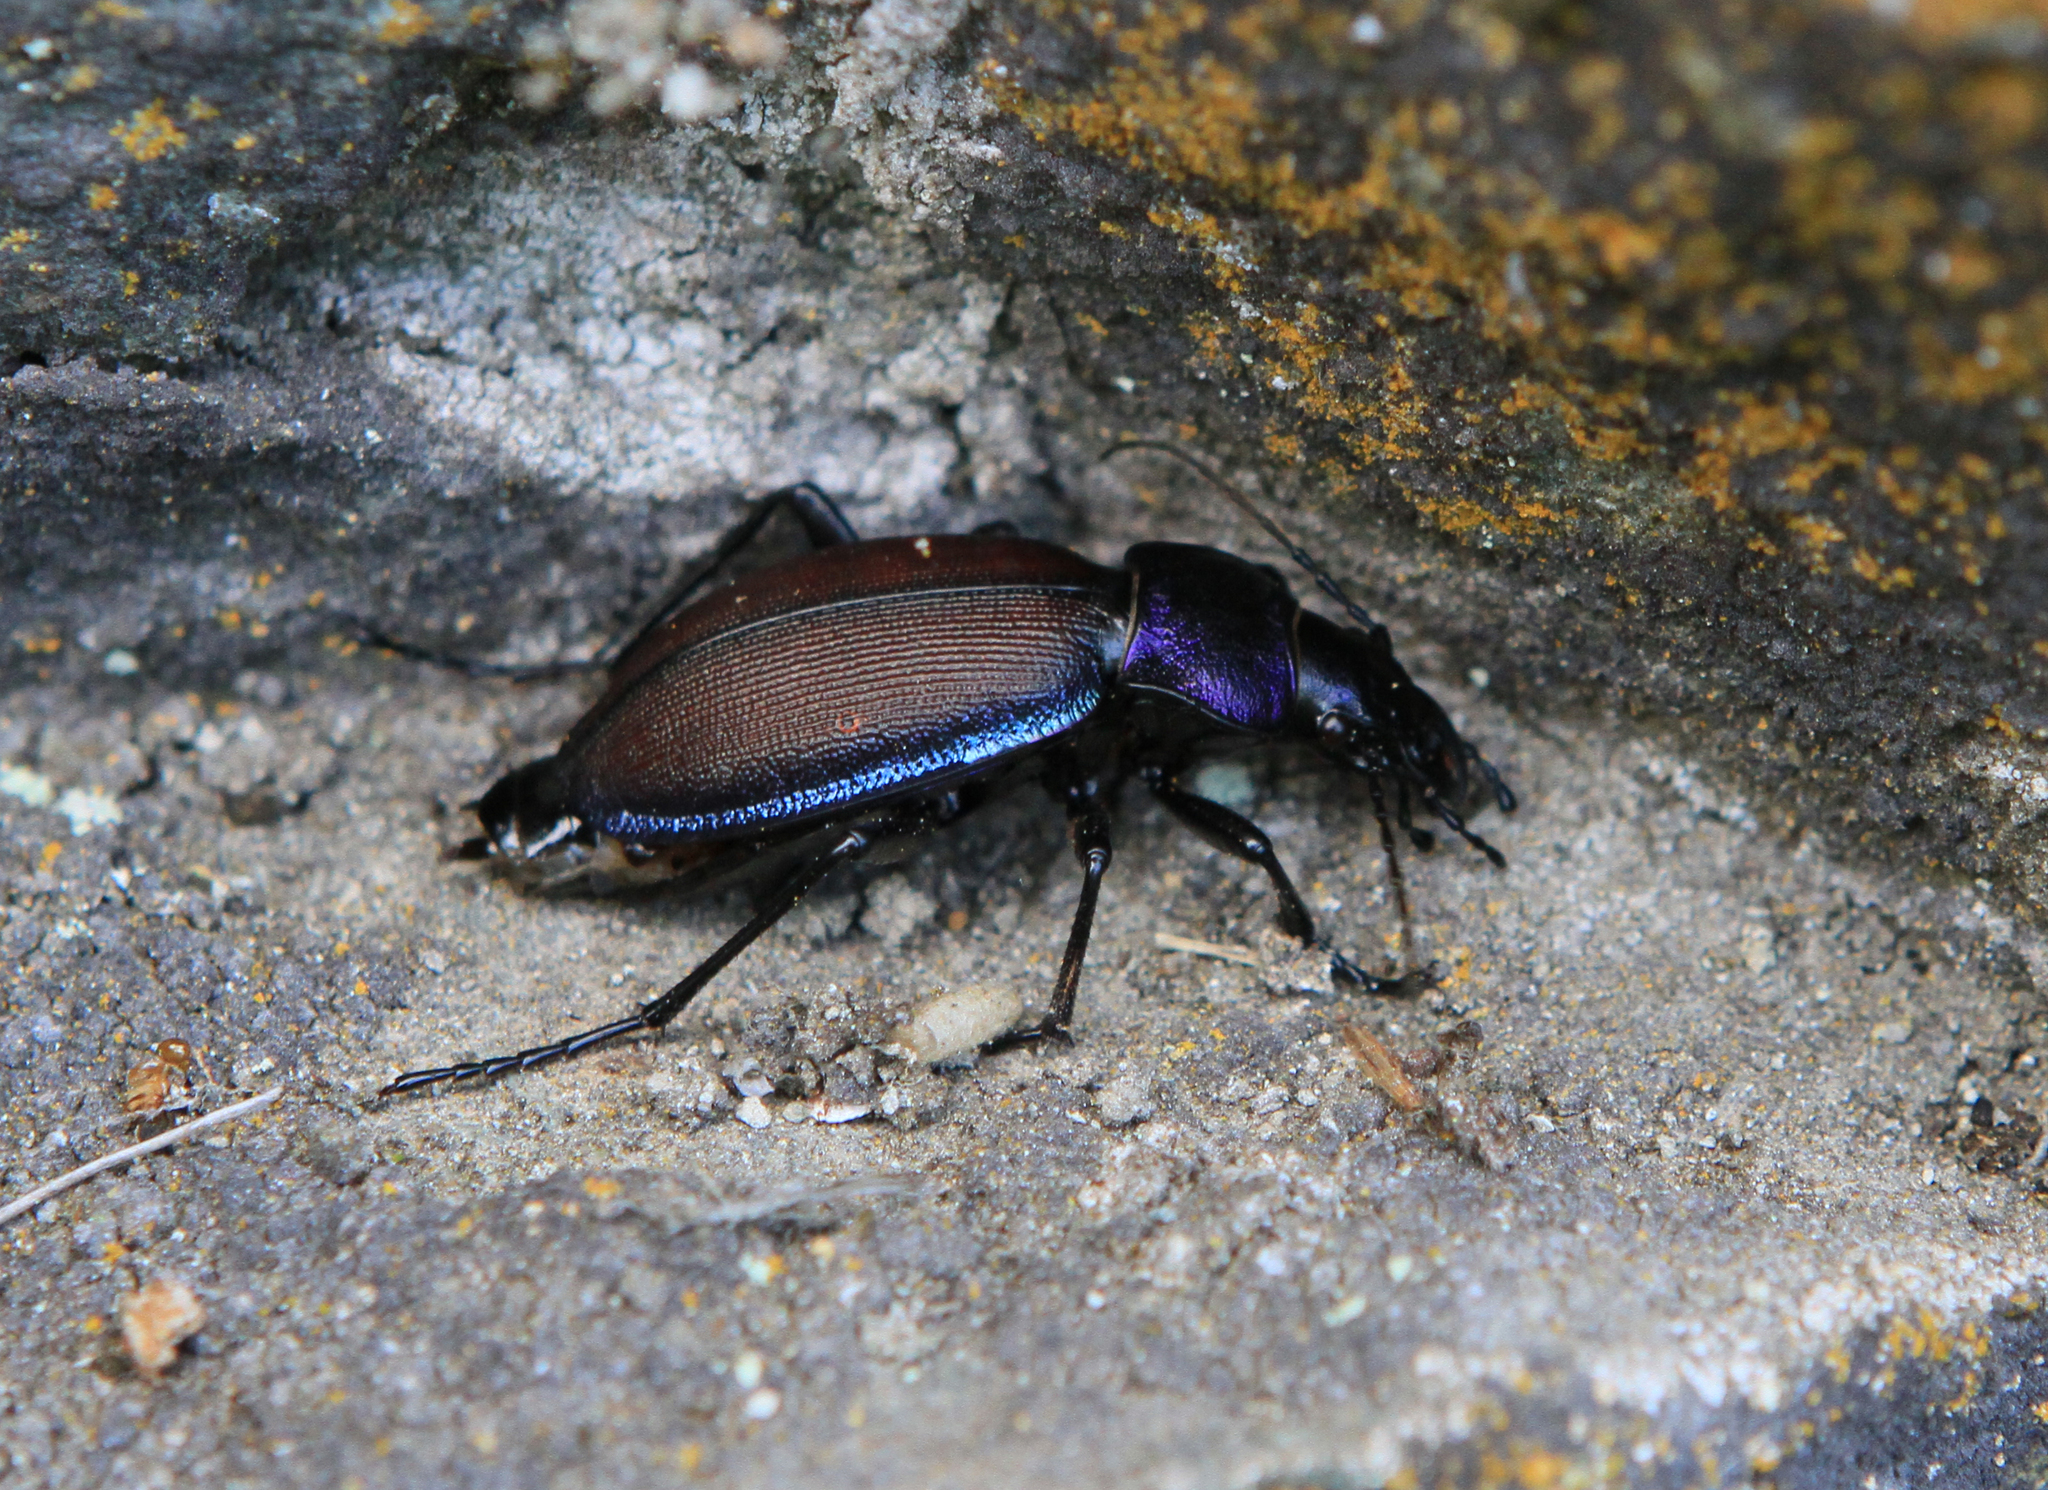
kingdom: Animalia
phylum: Arthropoda
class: Insecta
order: Coleoptera
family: Carabidae
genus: Carabus
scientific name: Carabus schoenherri
